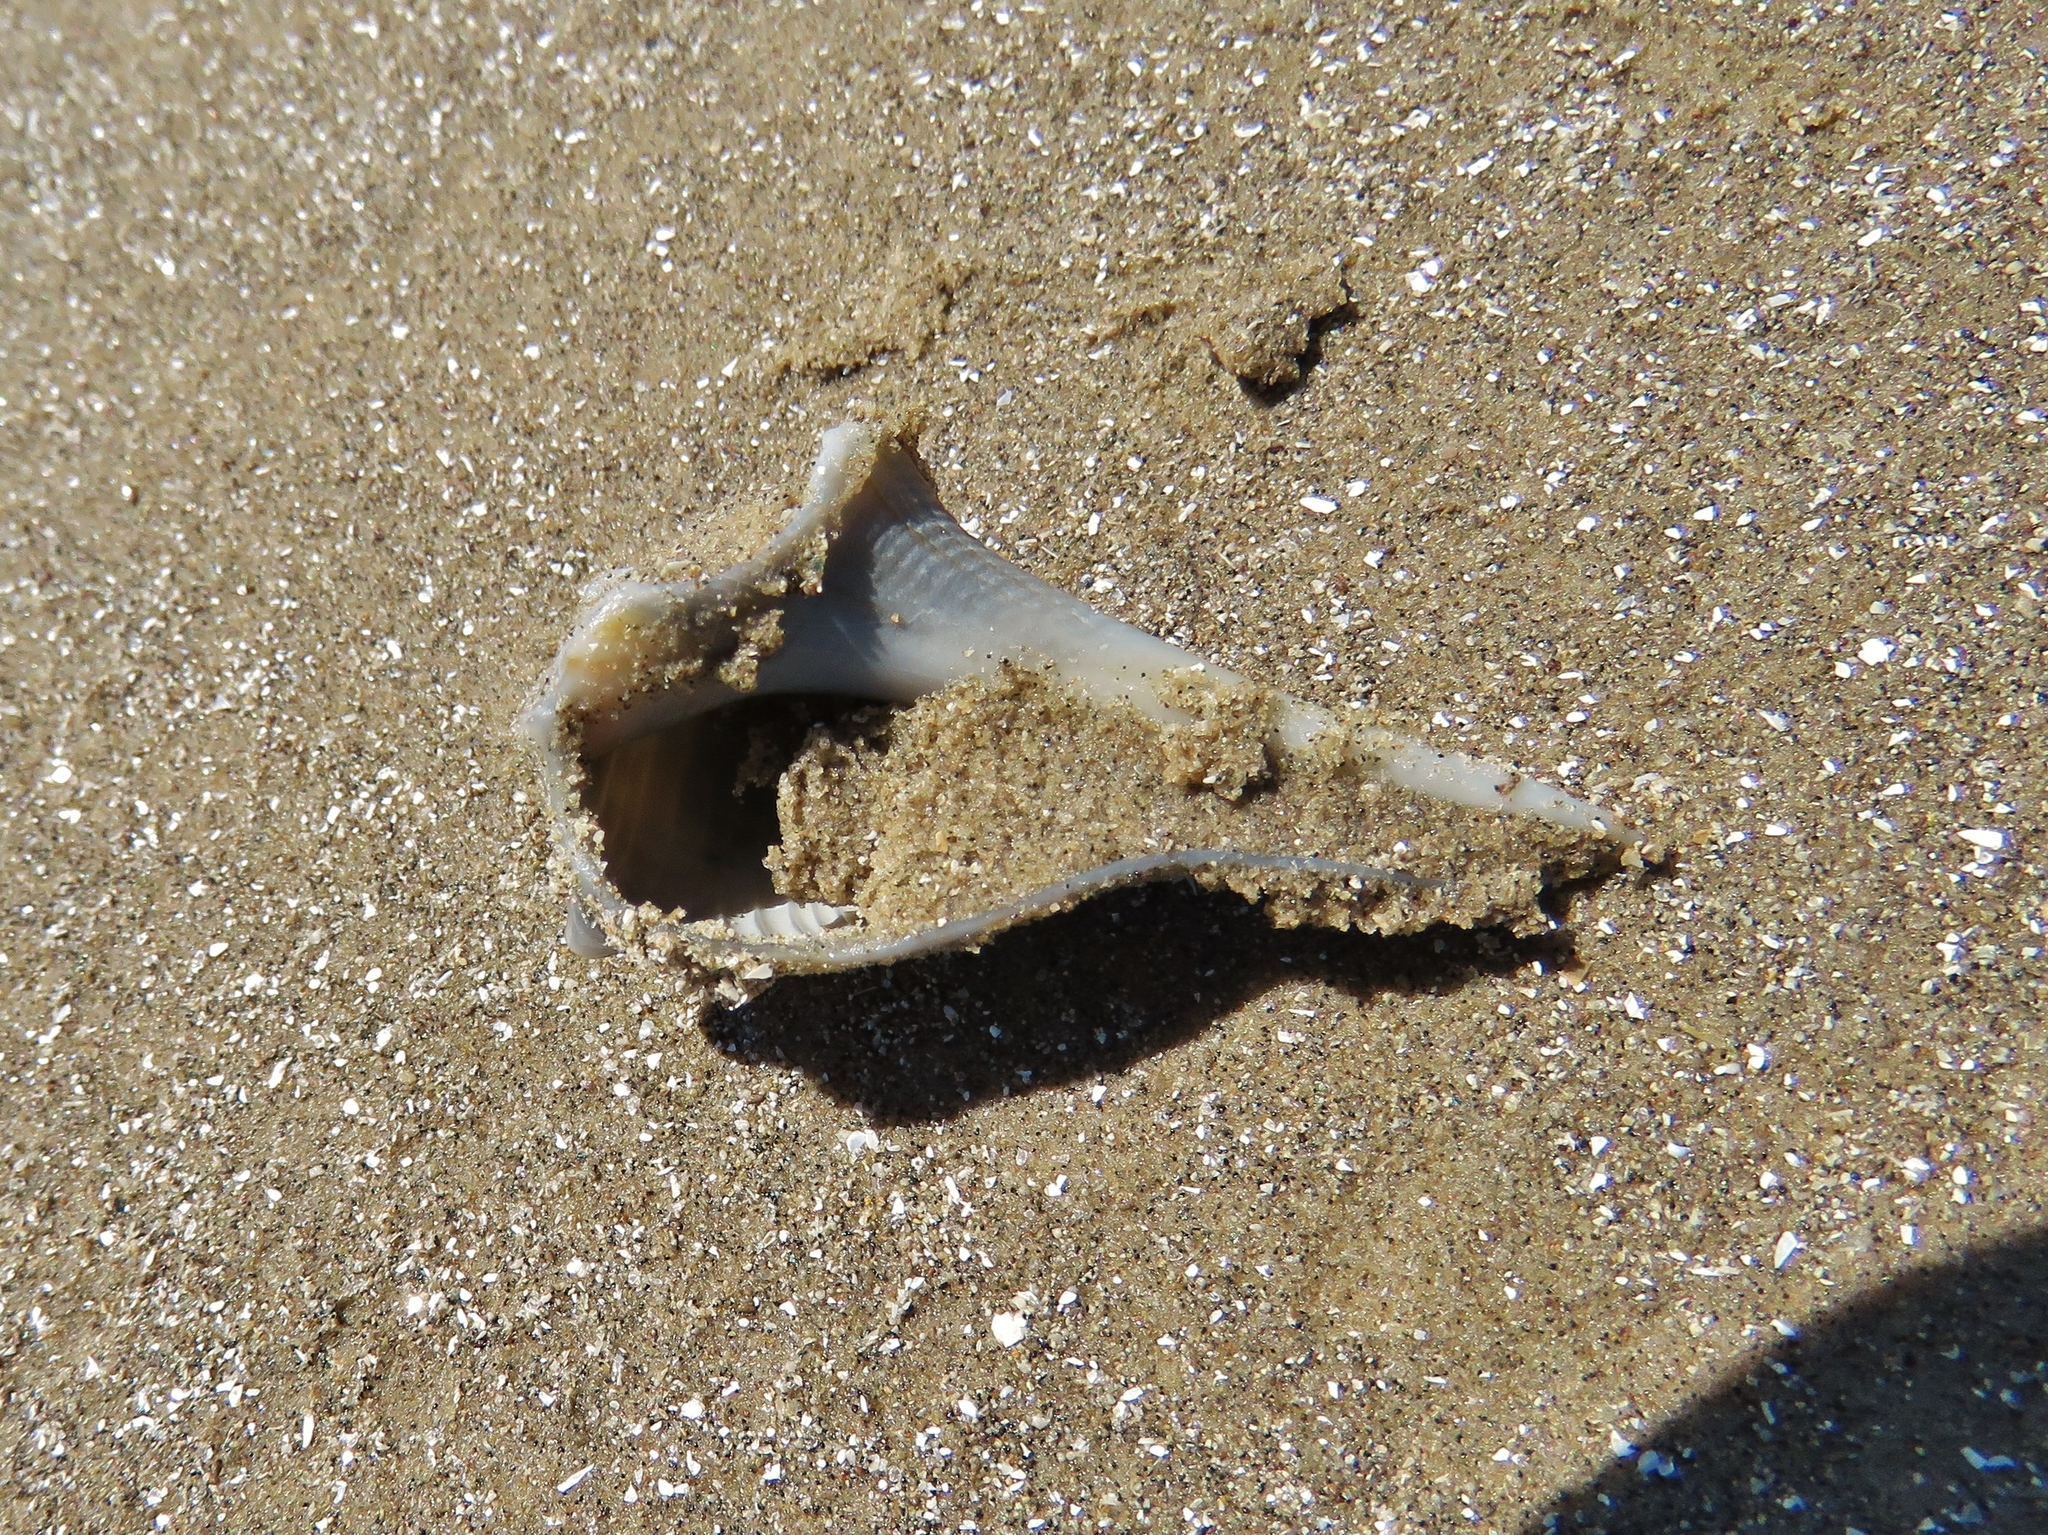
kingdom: Animalia
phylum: Mollusca
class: Gastropoda
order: Neogastropoda
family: Busyconidae
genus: Sinistrofulgur
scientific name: Sinistrofulgur pulleyi
